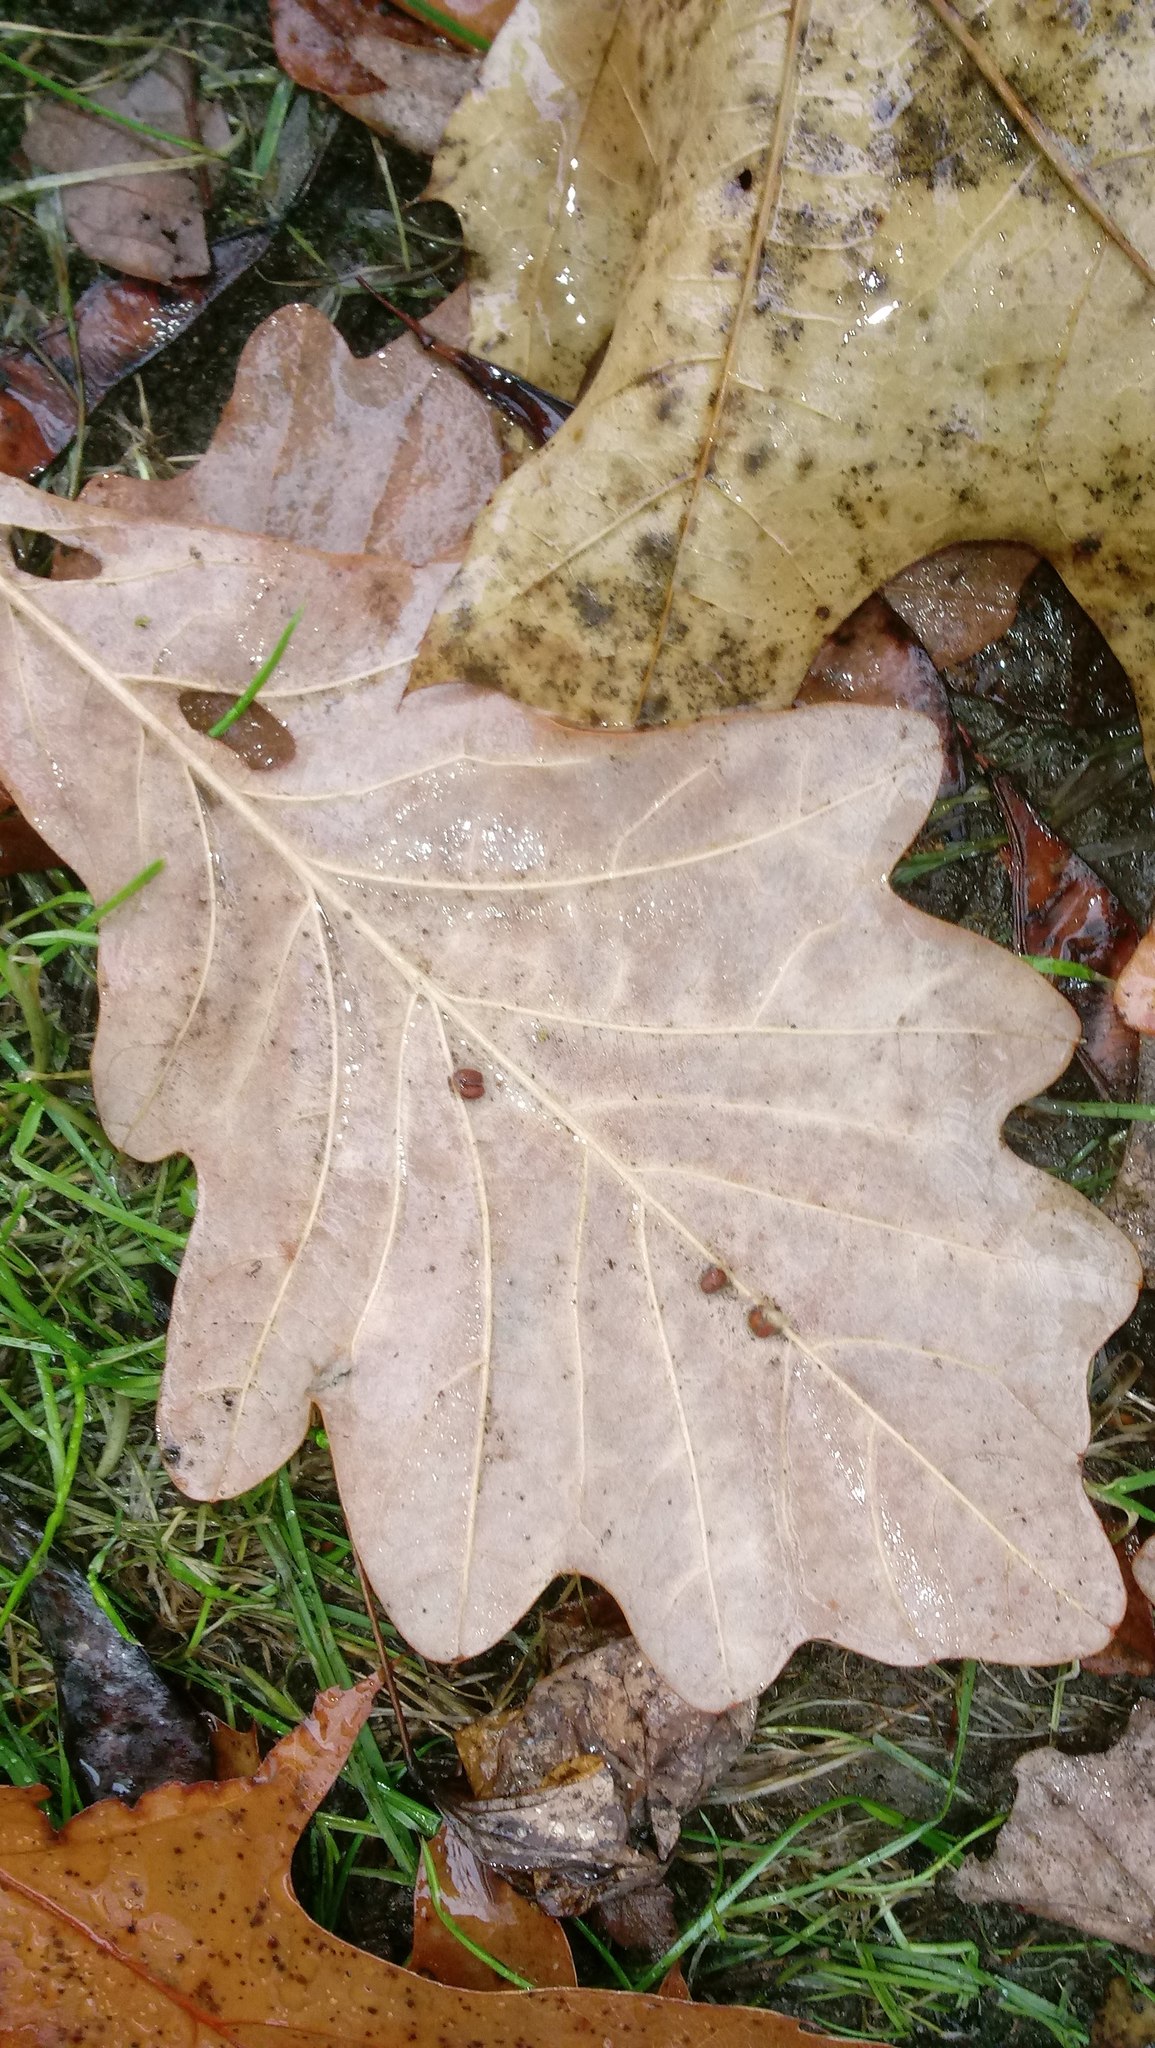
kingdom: Animalia
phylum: Arthropoda
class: Insecta
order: Hymenoptera
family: Cynipidae
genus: Andricus
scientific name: Andricus Druon ignotum
